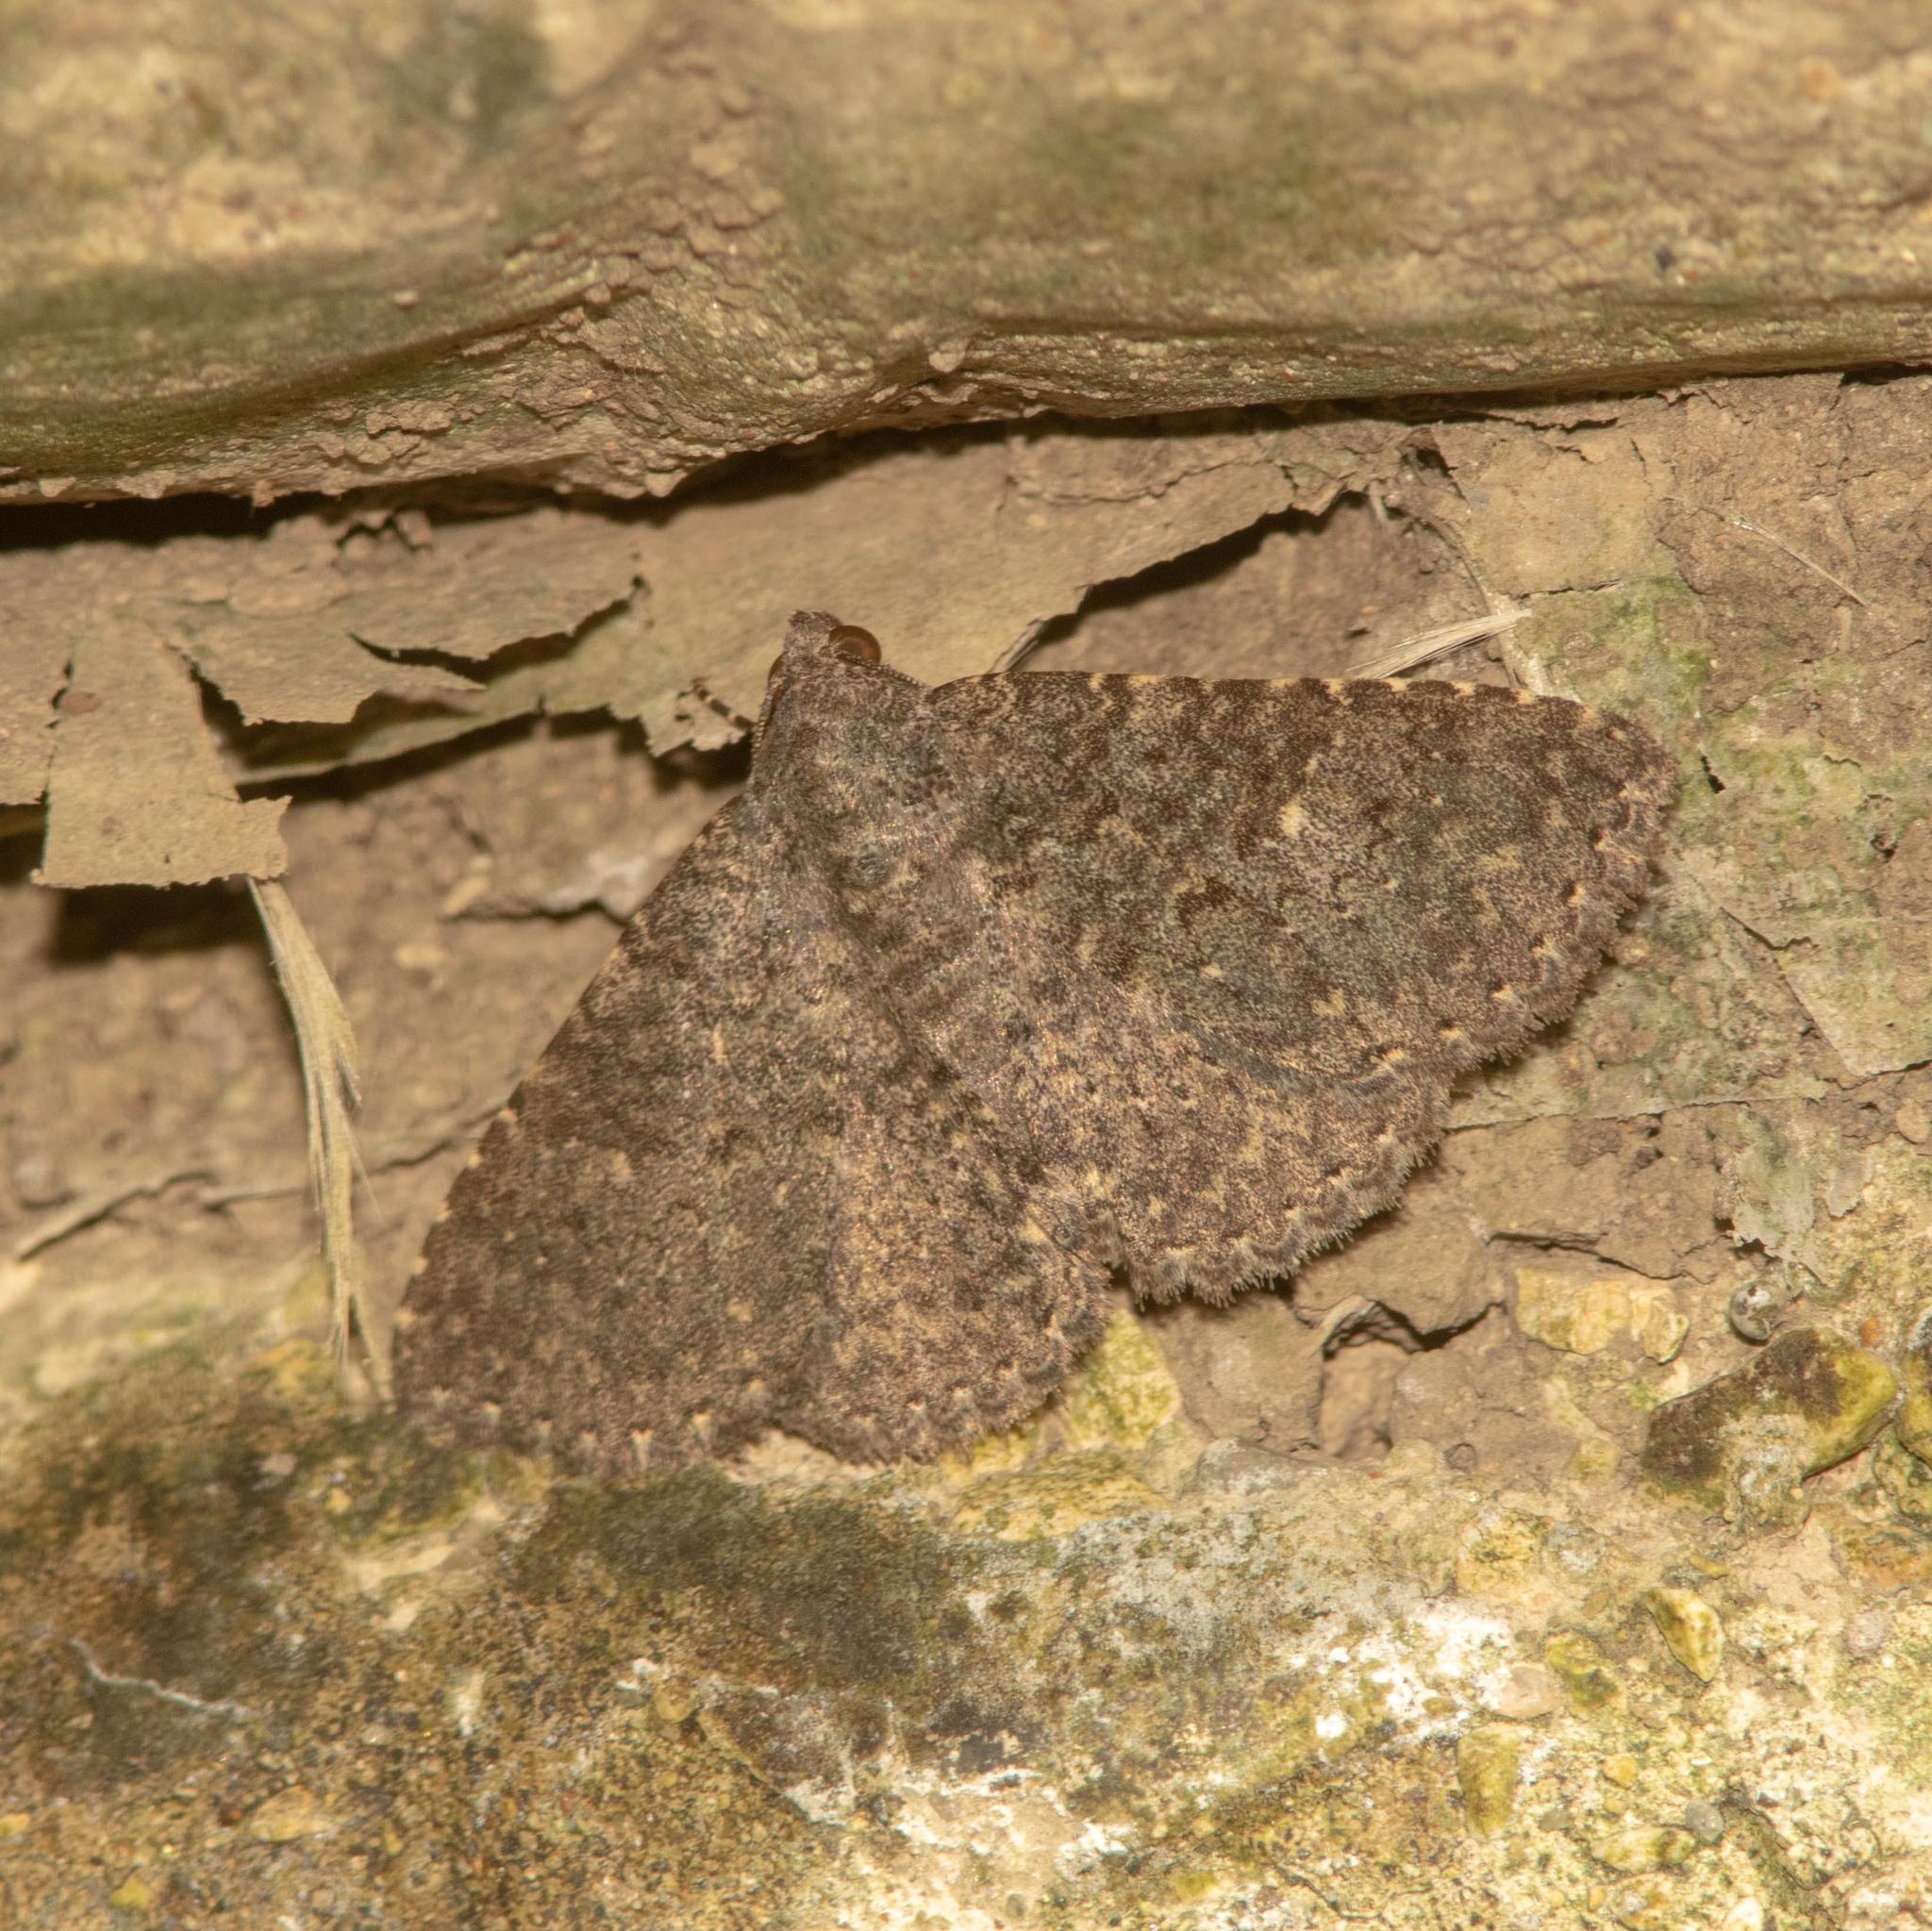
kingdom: Animalia
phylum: Arthropoda
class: Insecta
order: Lepidoptera
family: Erebidae
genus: Matigramma
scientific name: Matigramma obscurior
